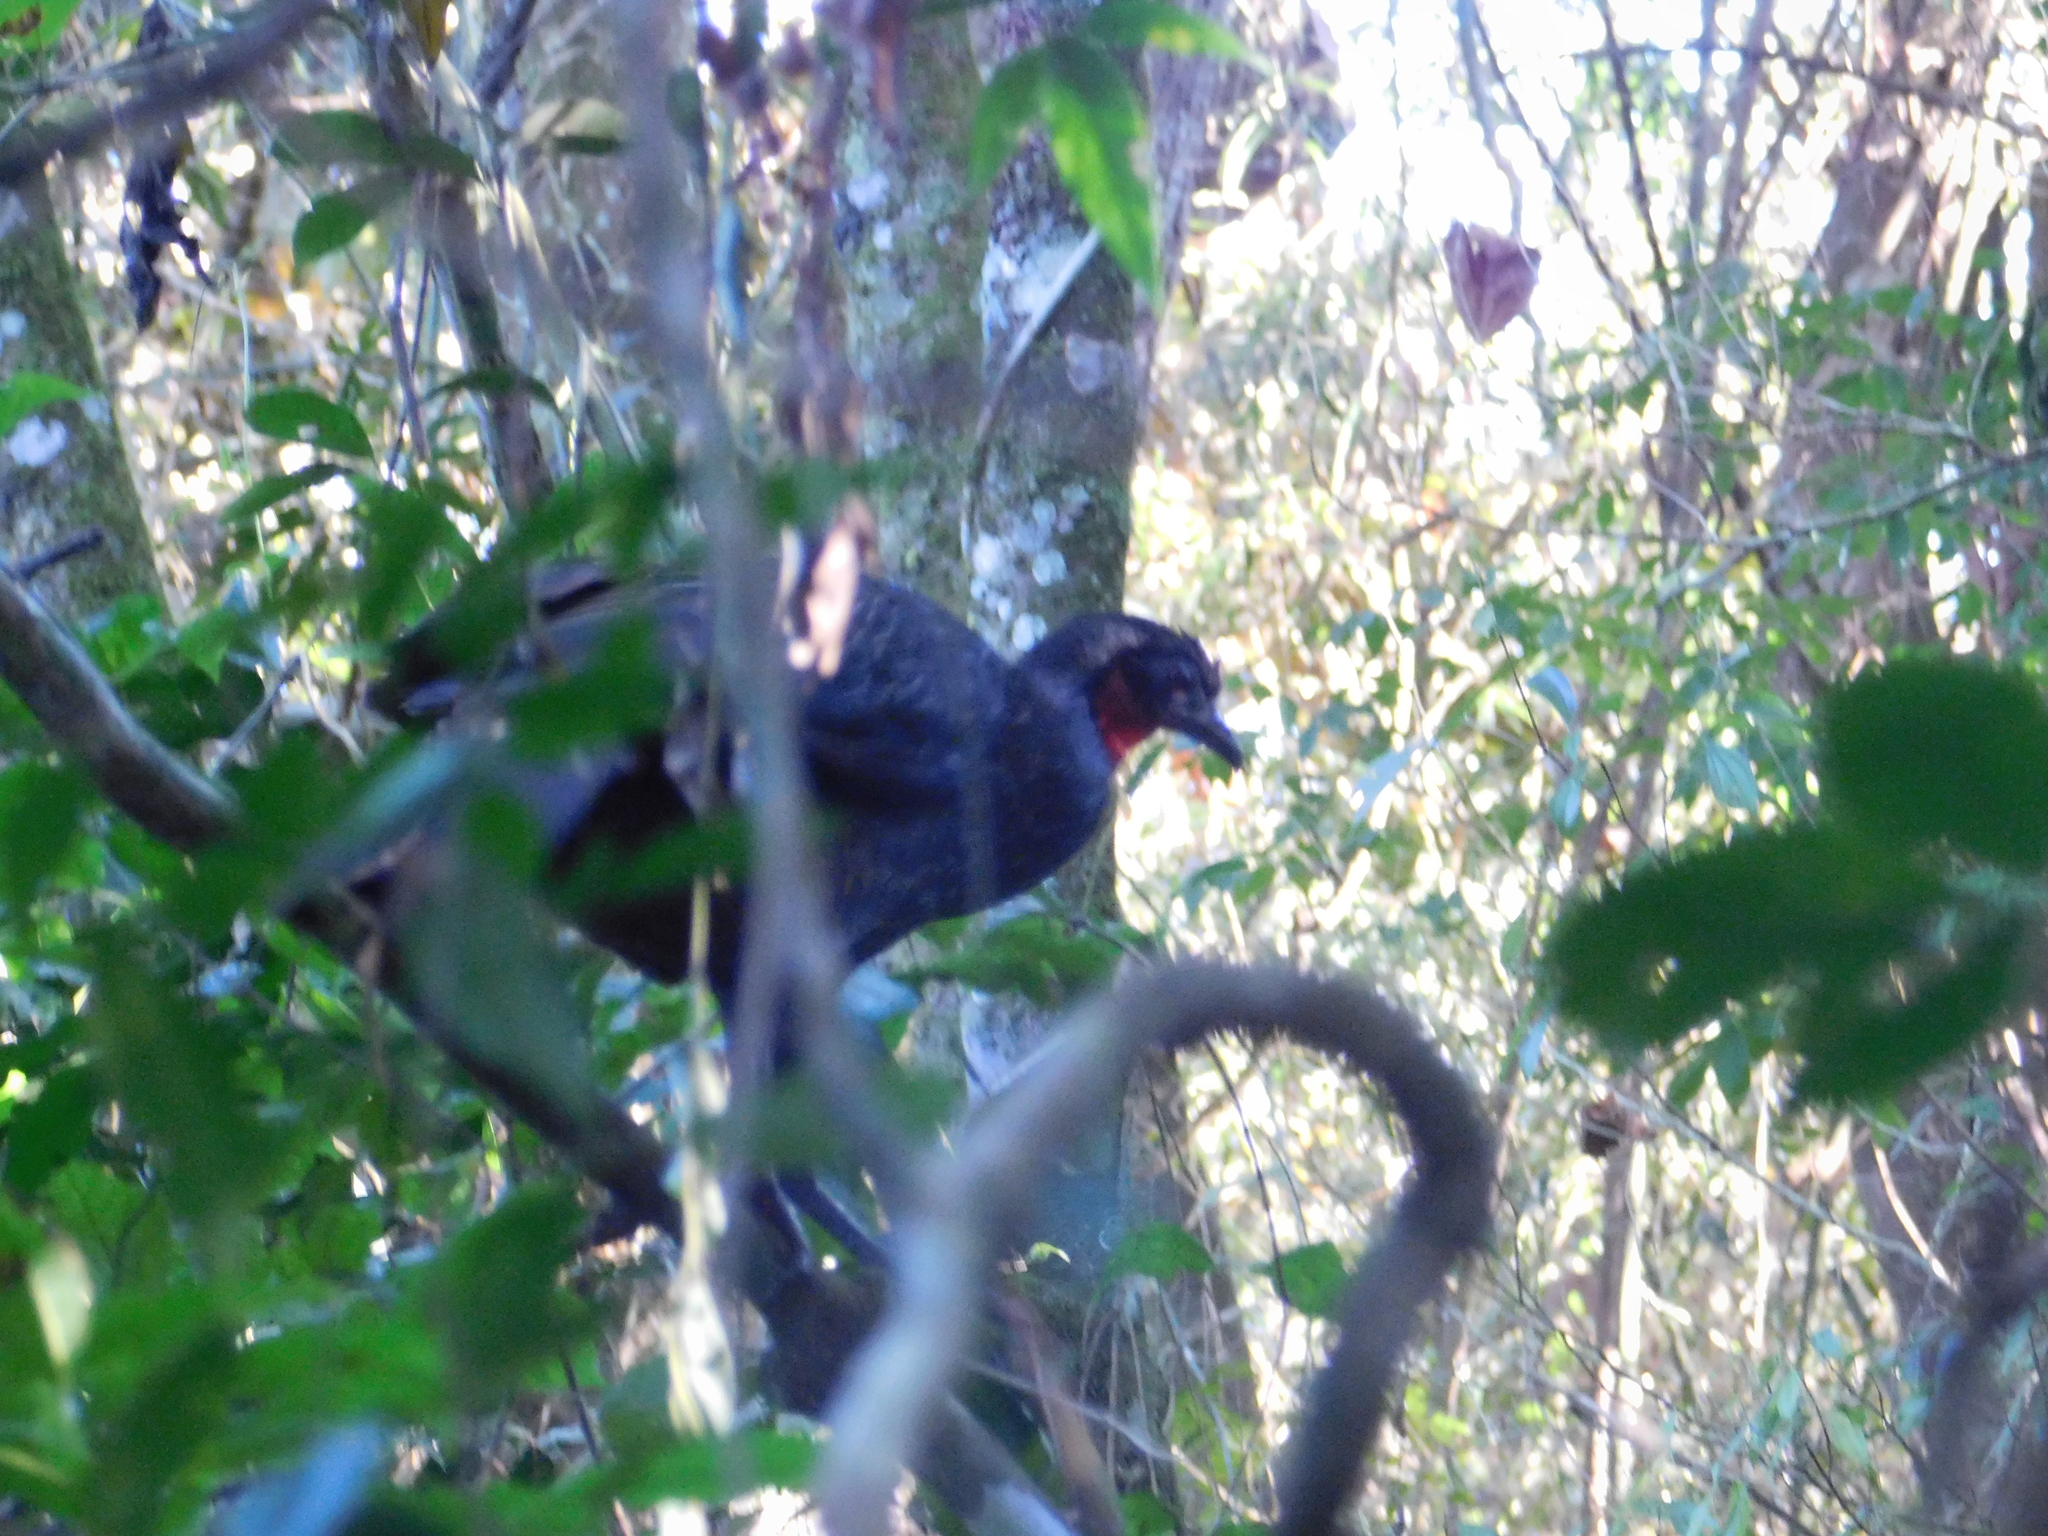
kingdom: Animalia
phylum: Chordata
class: Aves
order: Galliformes
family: Cracidae
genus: Penelope
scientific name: Penelope superciliaris
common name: Rusty-margined guan
